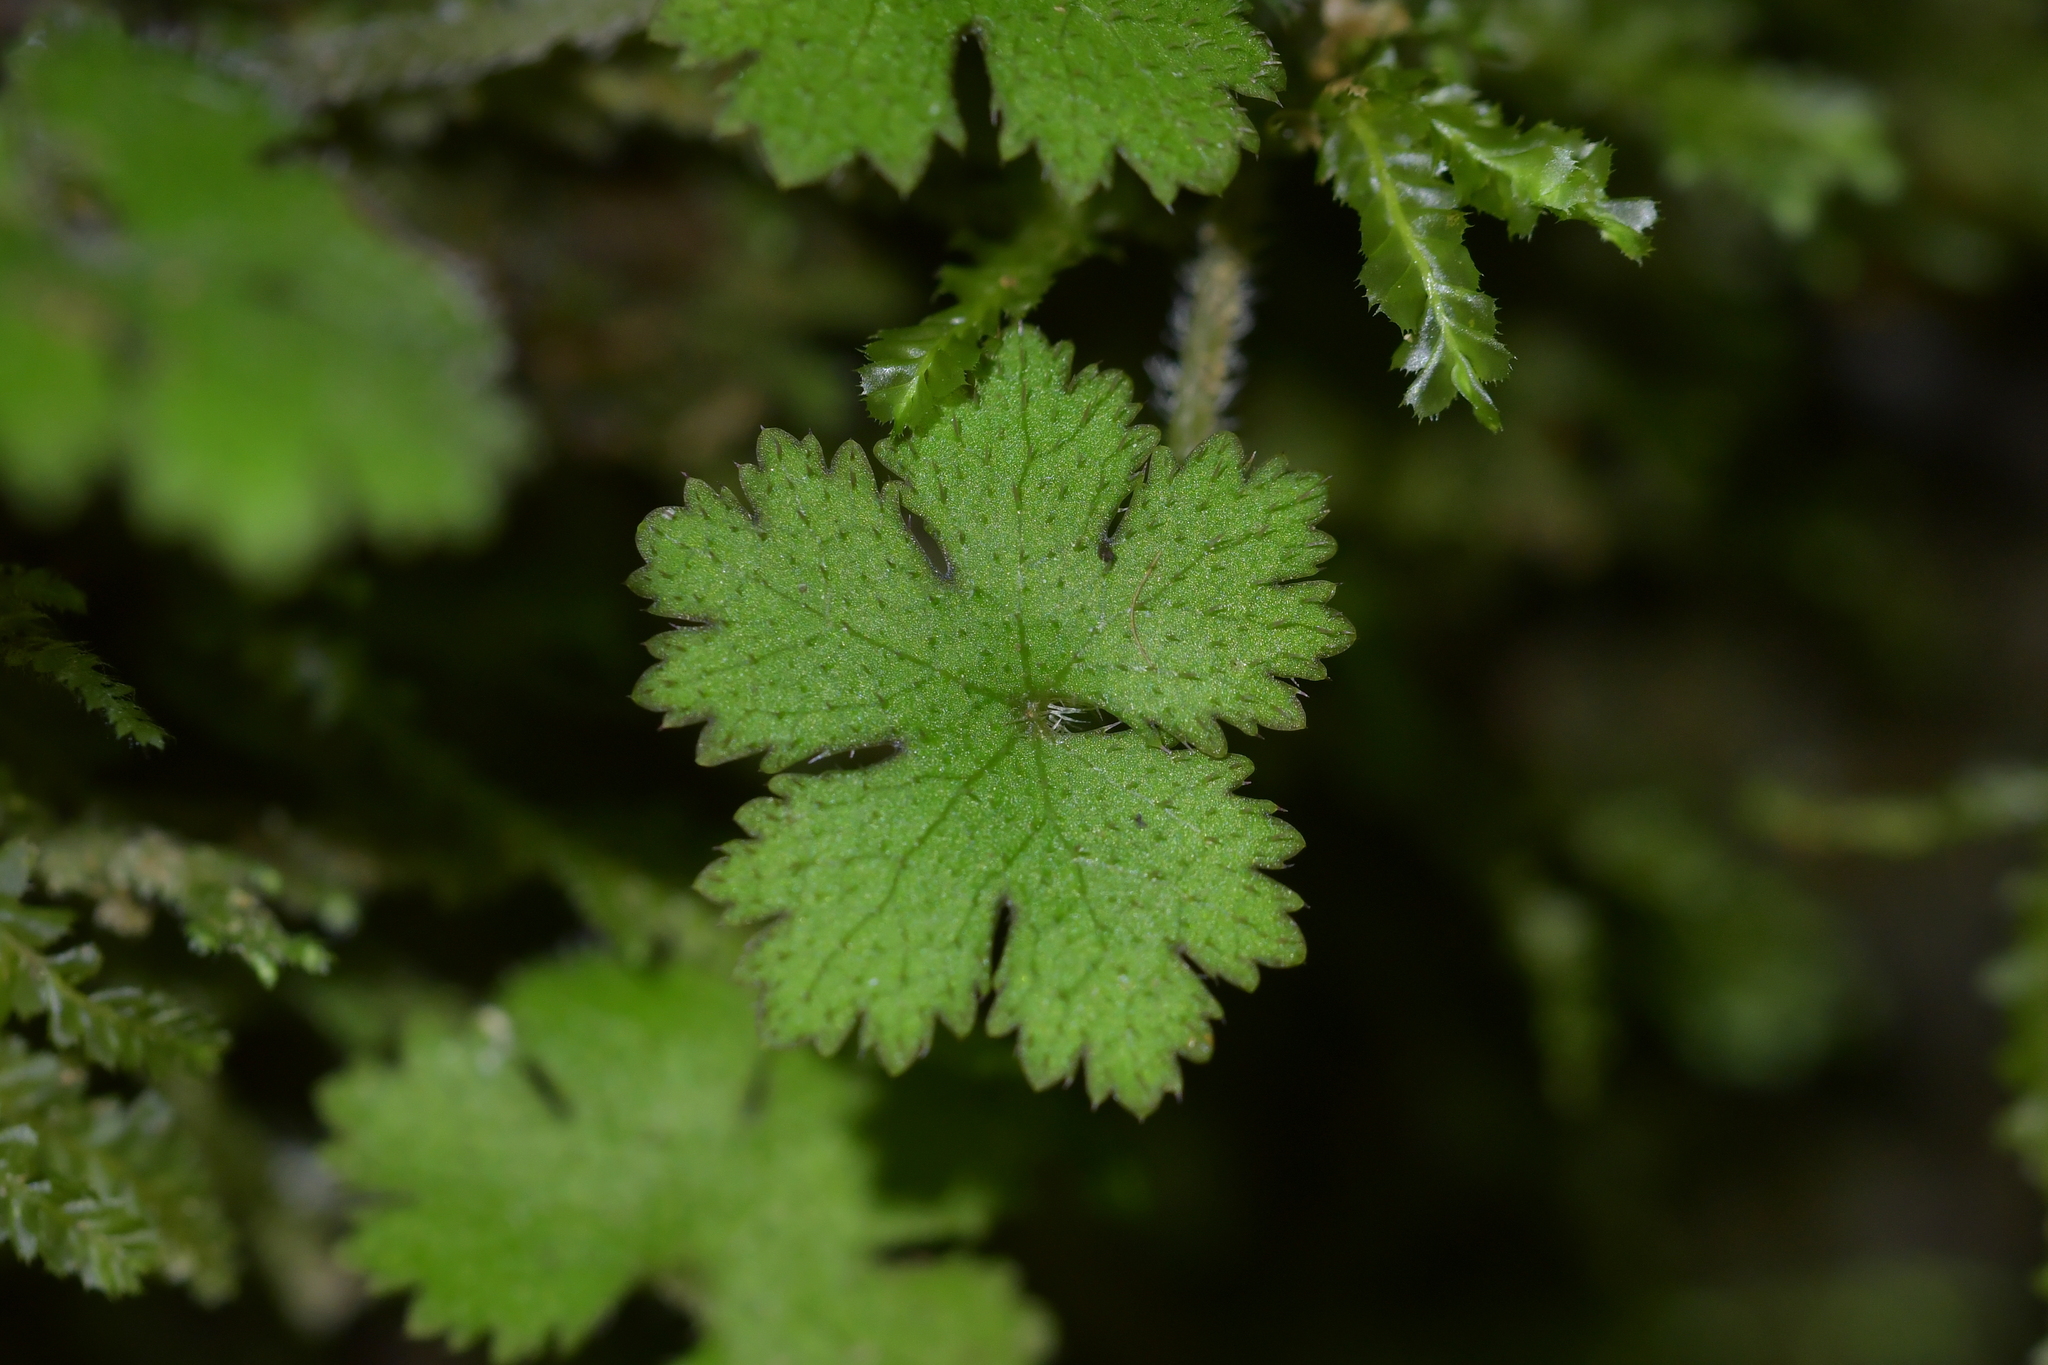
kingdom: Plantae
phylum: Tracheophyta
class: Magnoliopsida
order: Apiales
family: Araliaceae
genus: Hydrocotyle
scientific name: Hydrocotyle elongata
